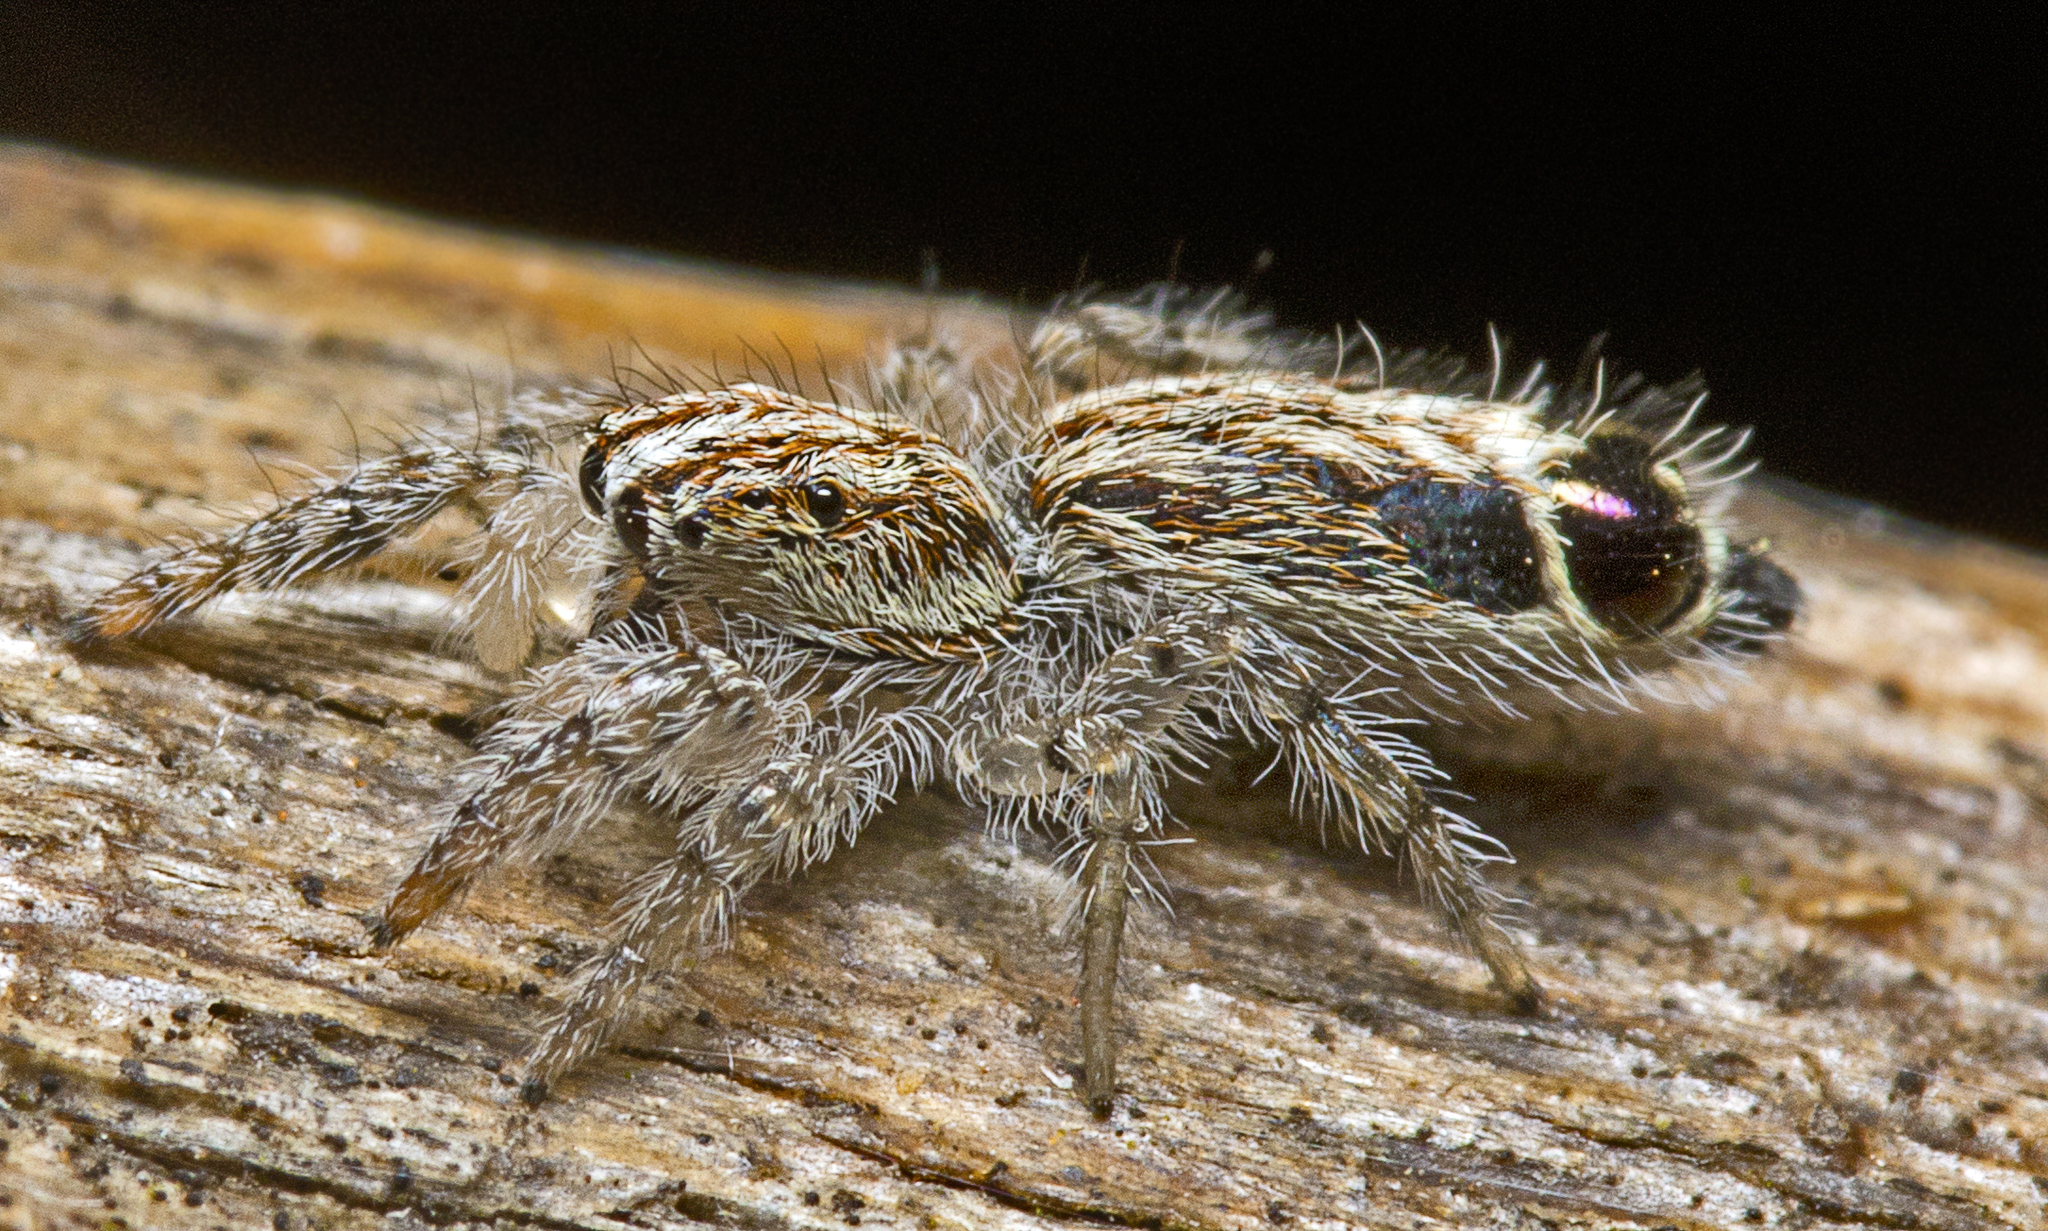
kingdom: Animalia
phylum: Arthropoda
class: Arachnida
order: Araneae
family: Salticidae
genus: Abracadabrella
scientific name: Abracadabrella elegans
